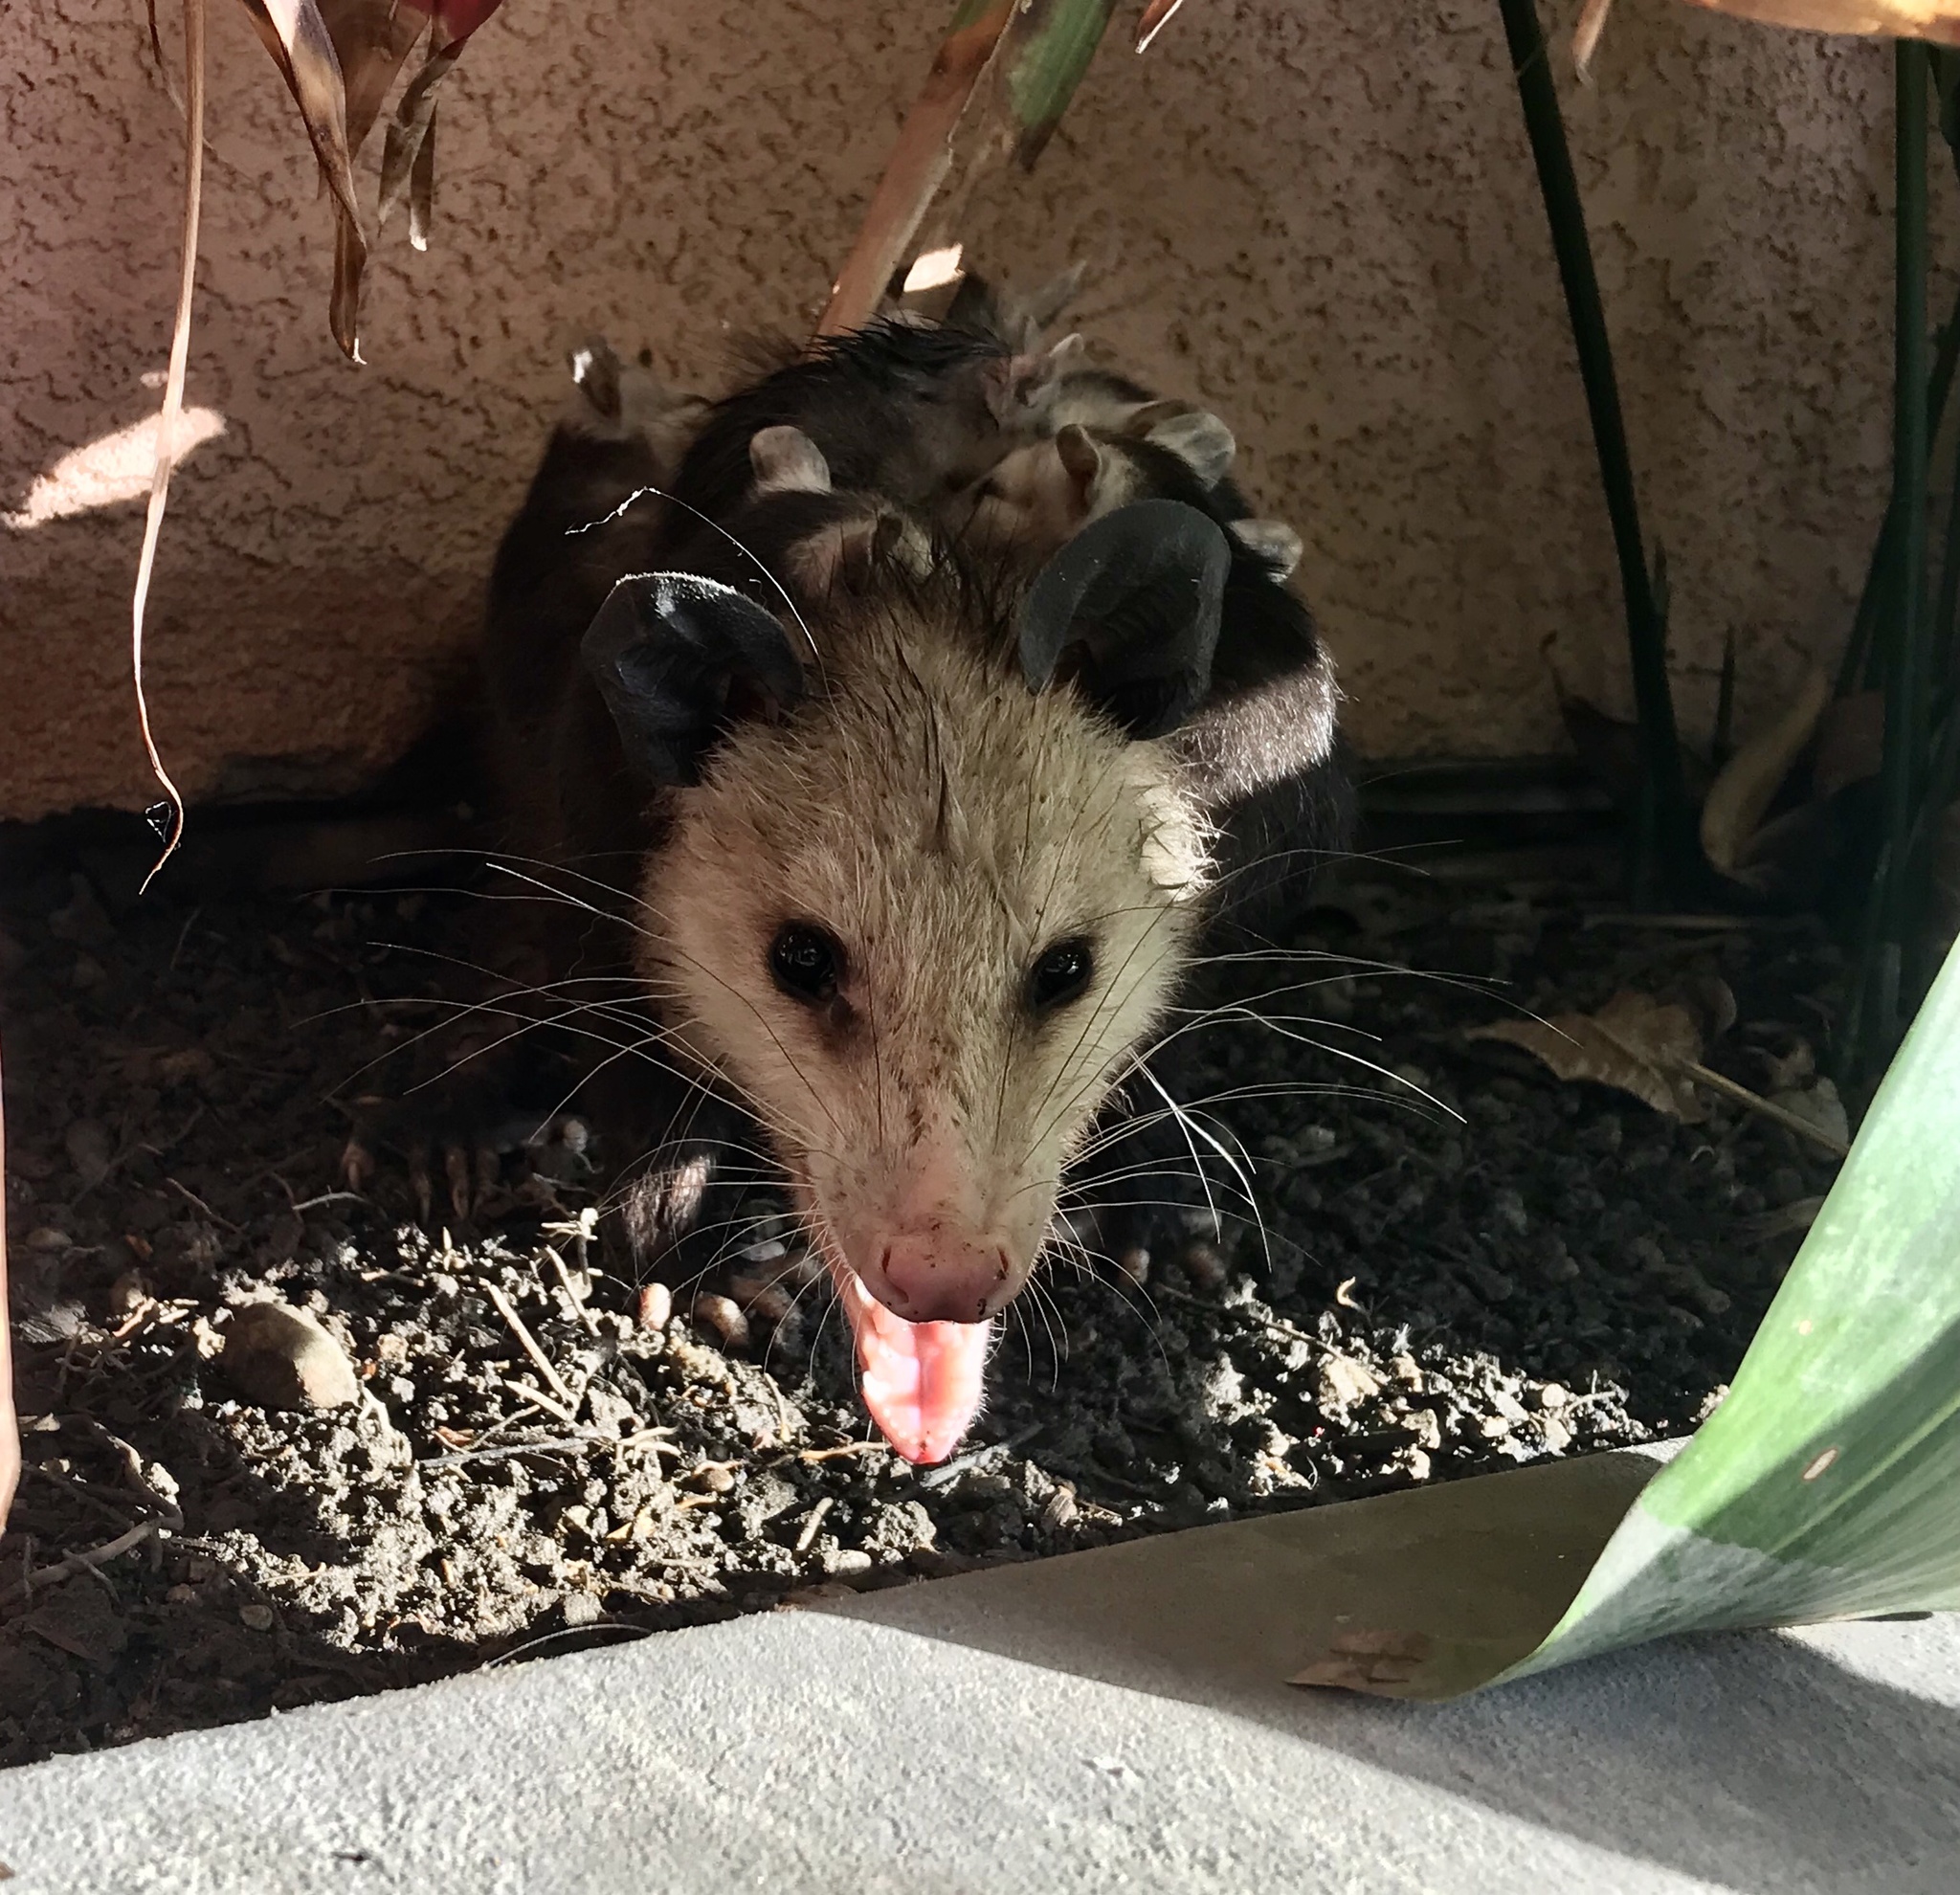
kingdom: Animalia
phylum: Chordata
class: Mammalia
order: Didelphimorphia
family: Didelphidae
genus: Didelphis
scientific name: Didelphis virginiana
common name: Virginia opossum
